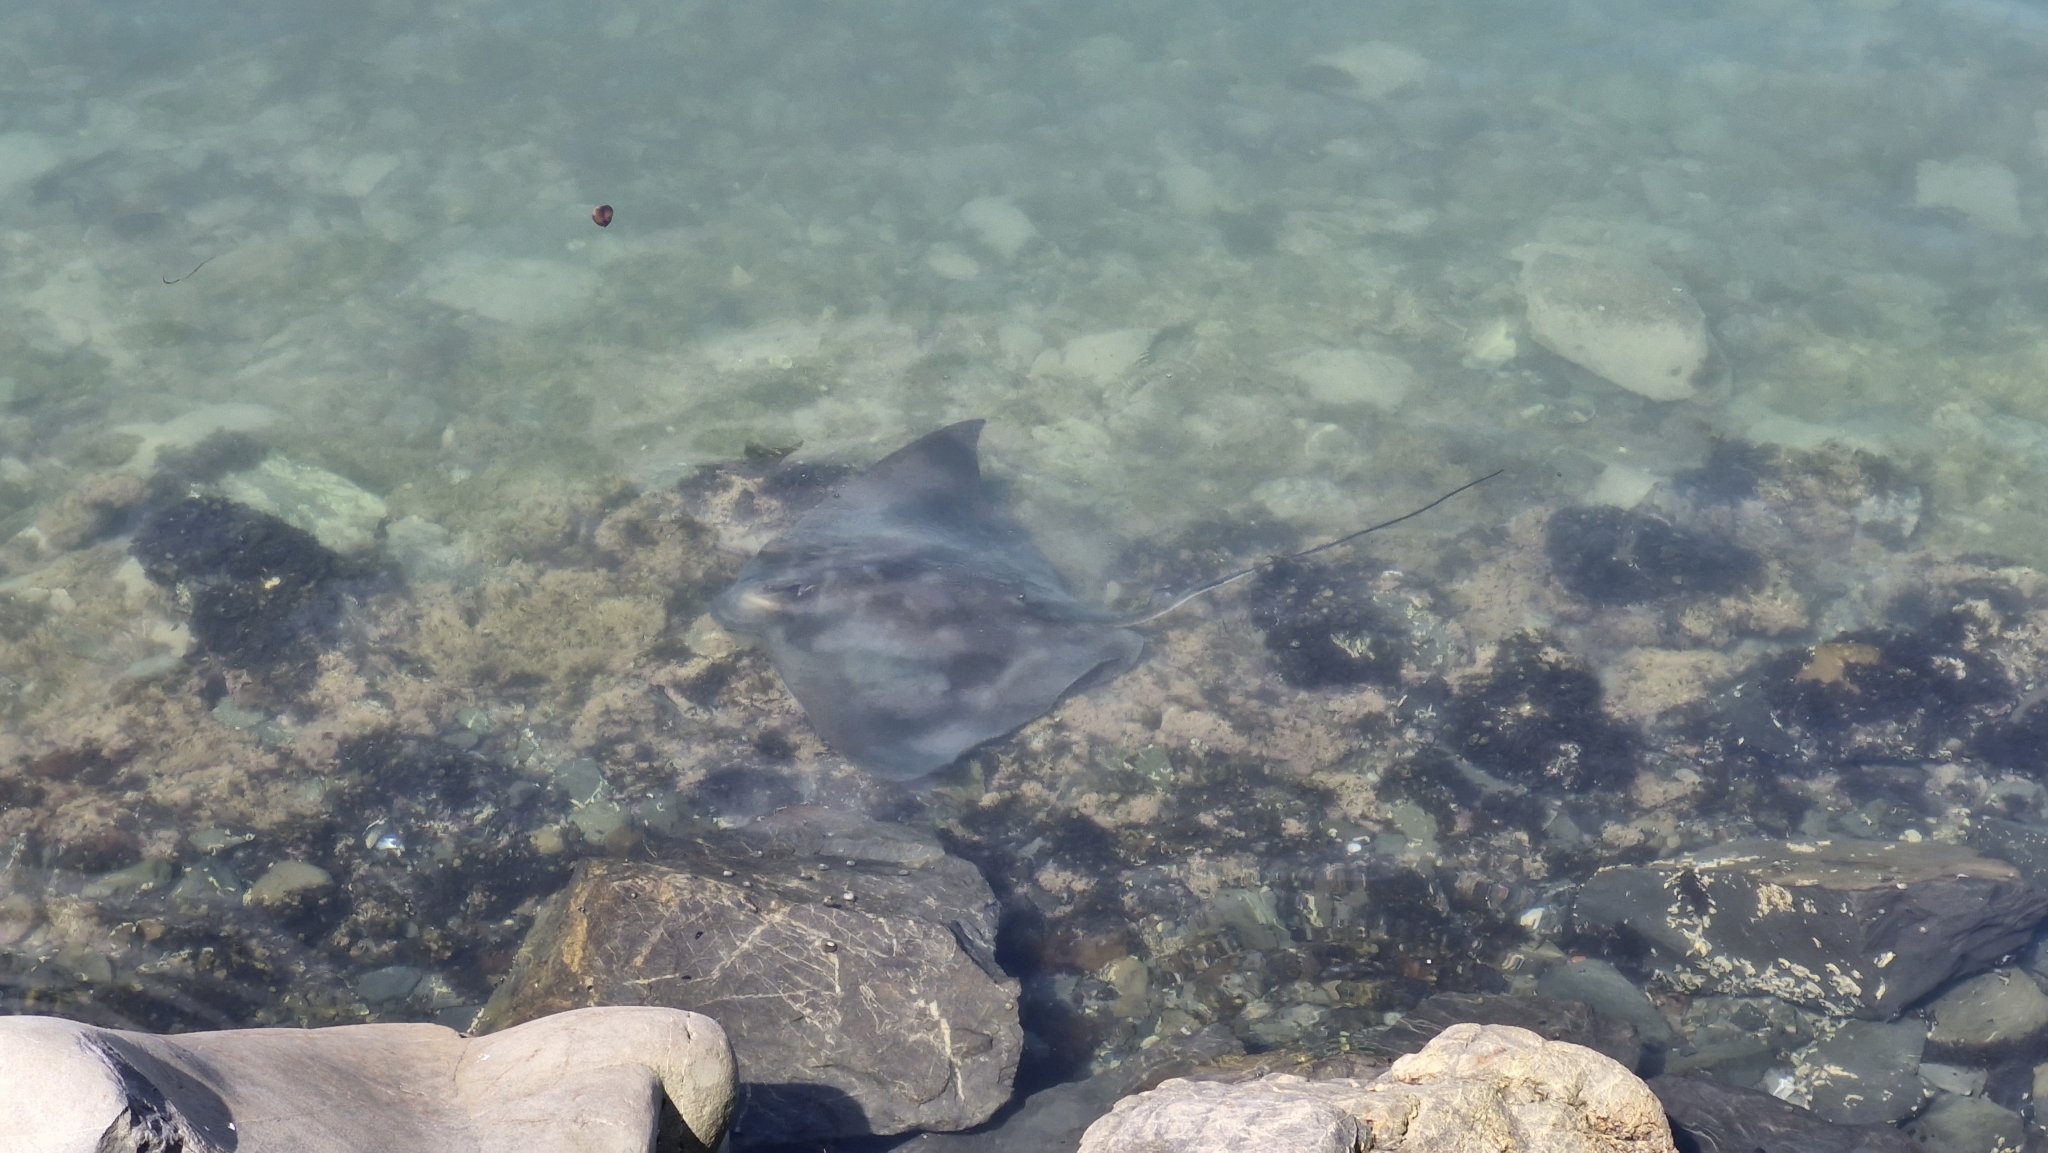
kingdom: Animalia
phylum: Chordata
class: Elasmobranchii
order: Myliobatiformes
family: Myliobatidae
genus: Myliobatis
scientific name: Myliobatis tenuicaudatus
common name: Eagle ray
